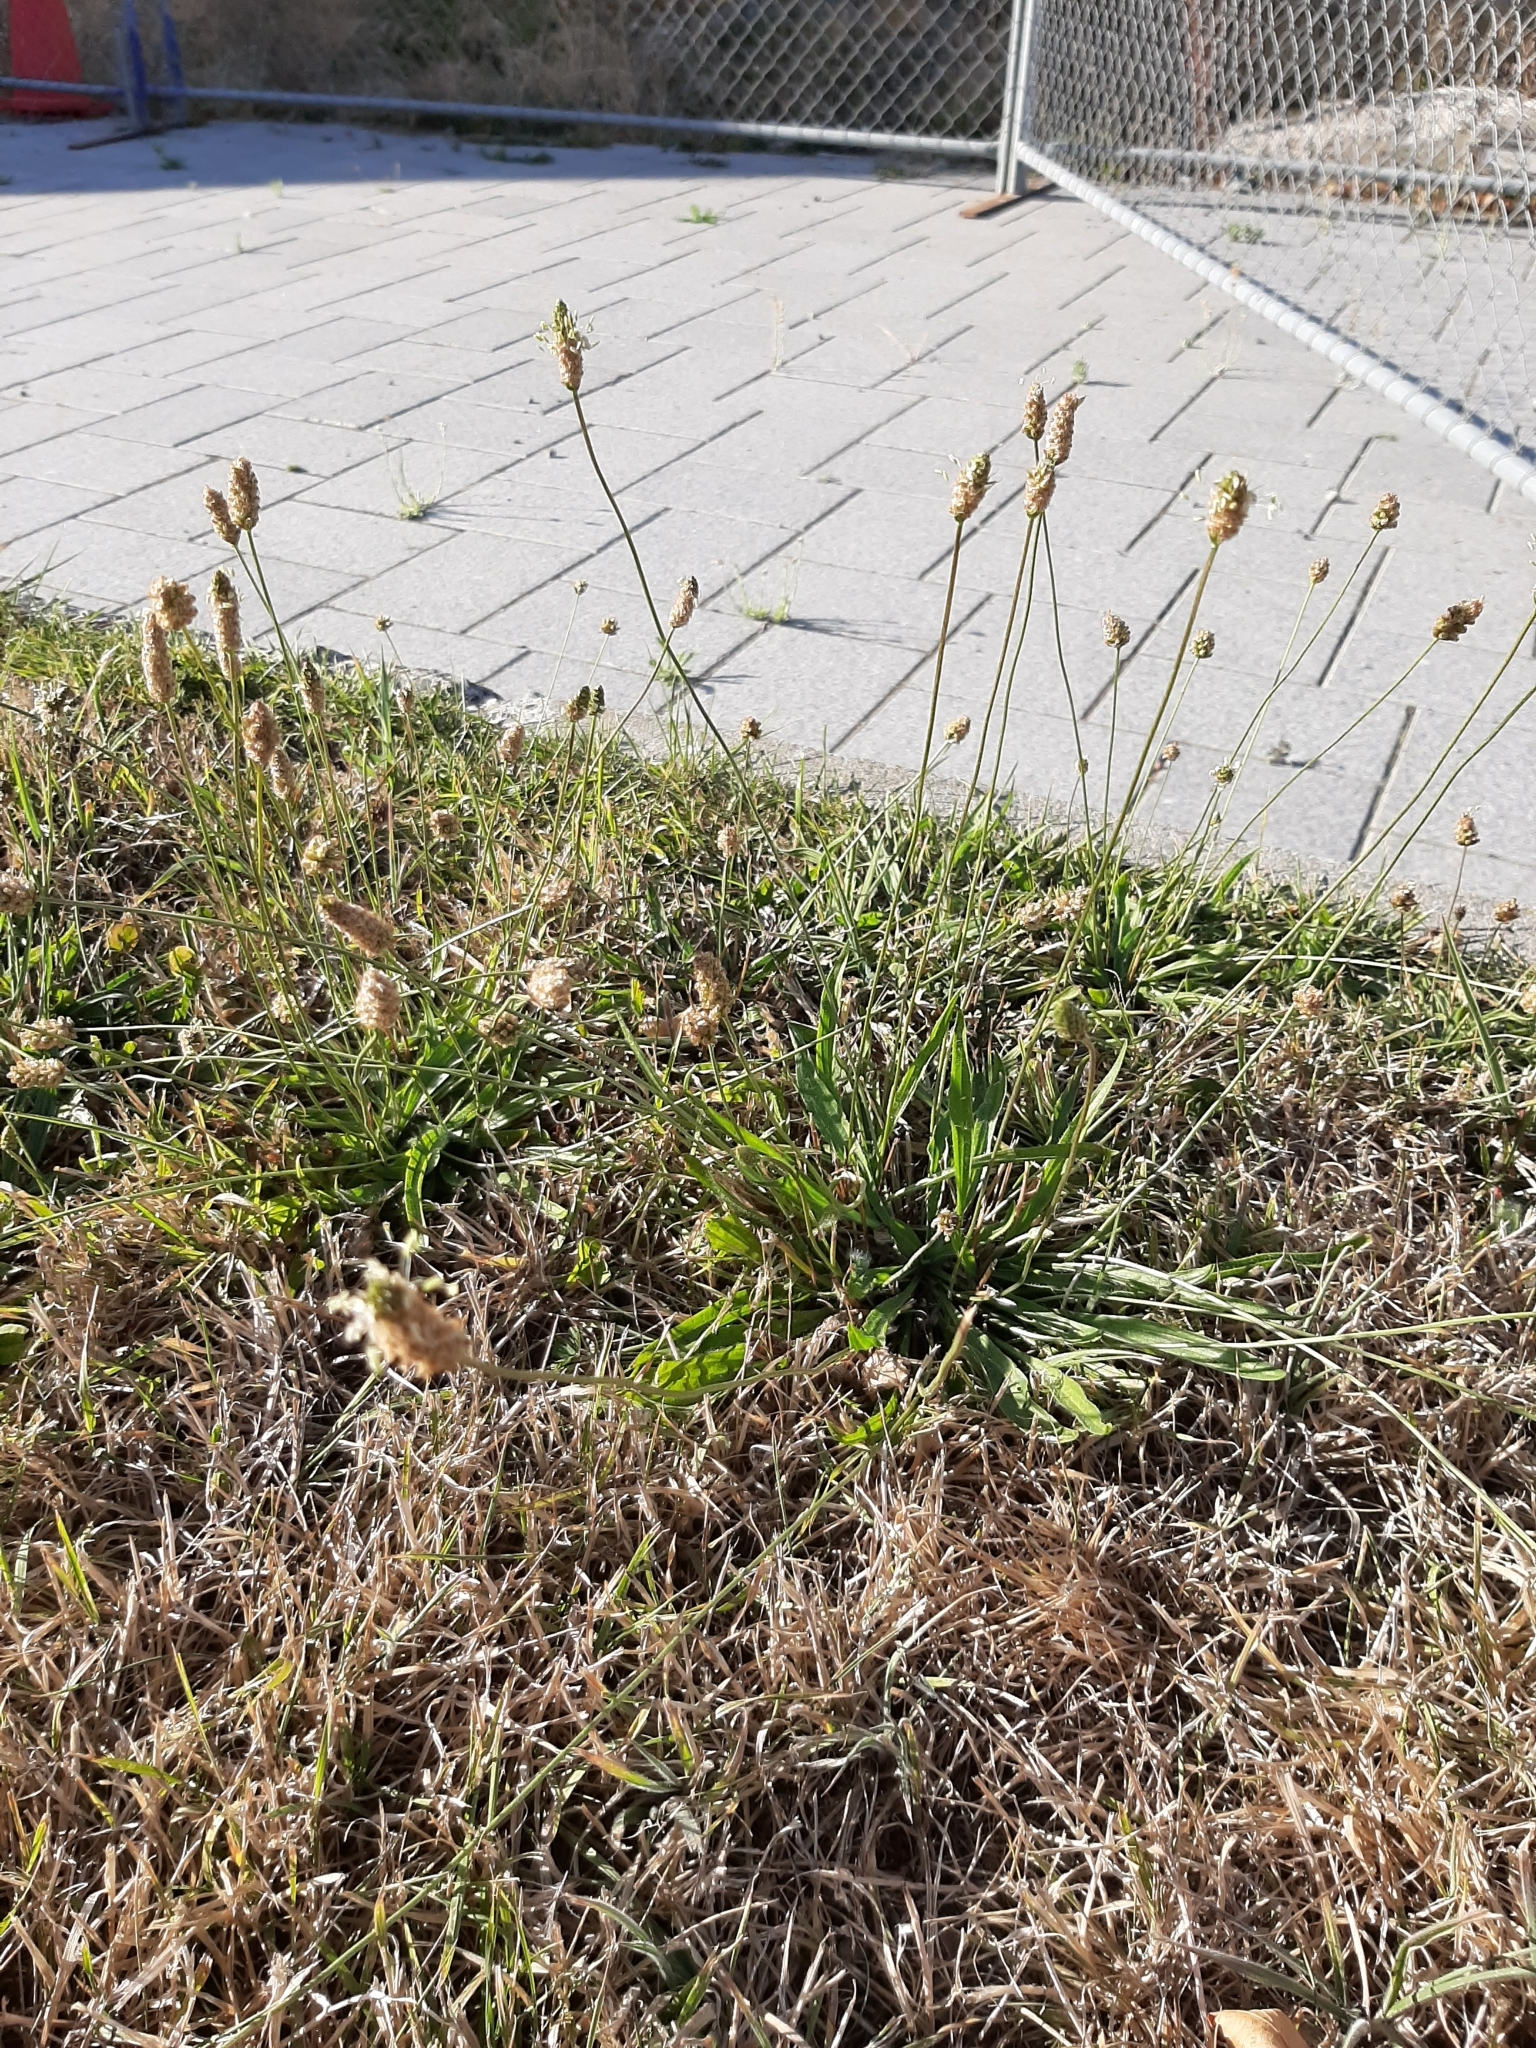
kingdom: Plantae
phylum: Tracheophyta
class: Magnoliopsida
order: Lamiales
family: Plantaginaceae
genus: Plantago
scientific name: Plantago lanceolata
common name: Ribwort plantain
